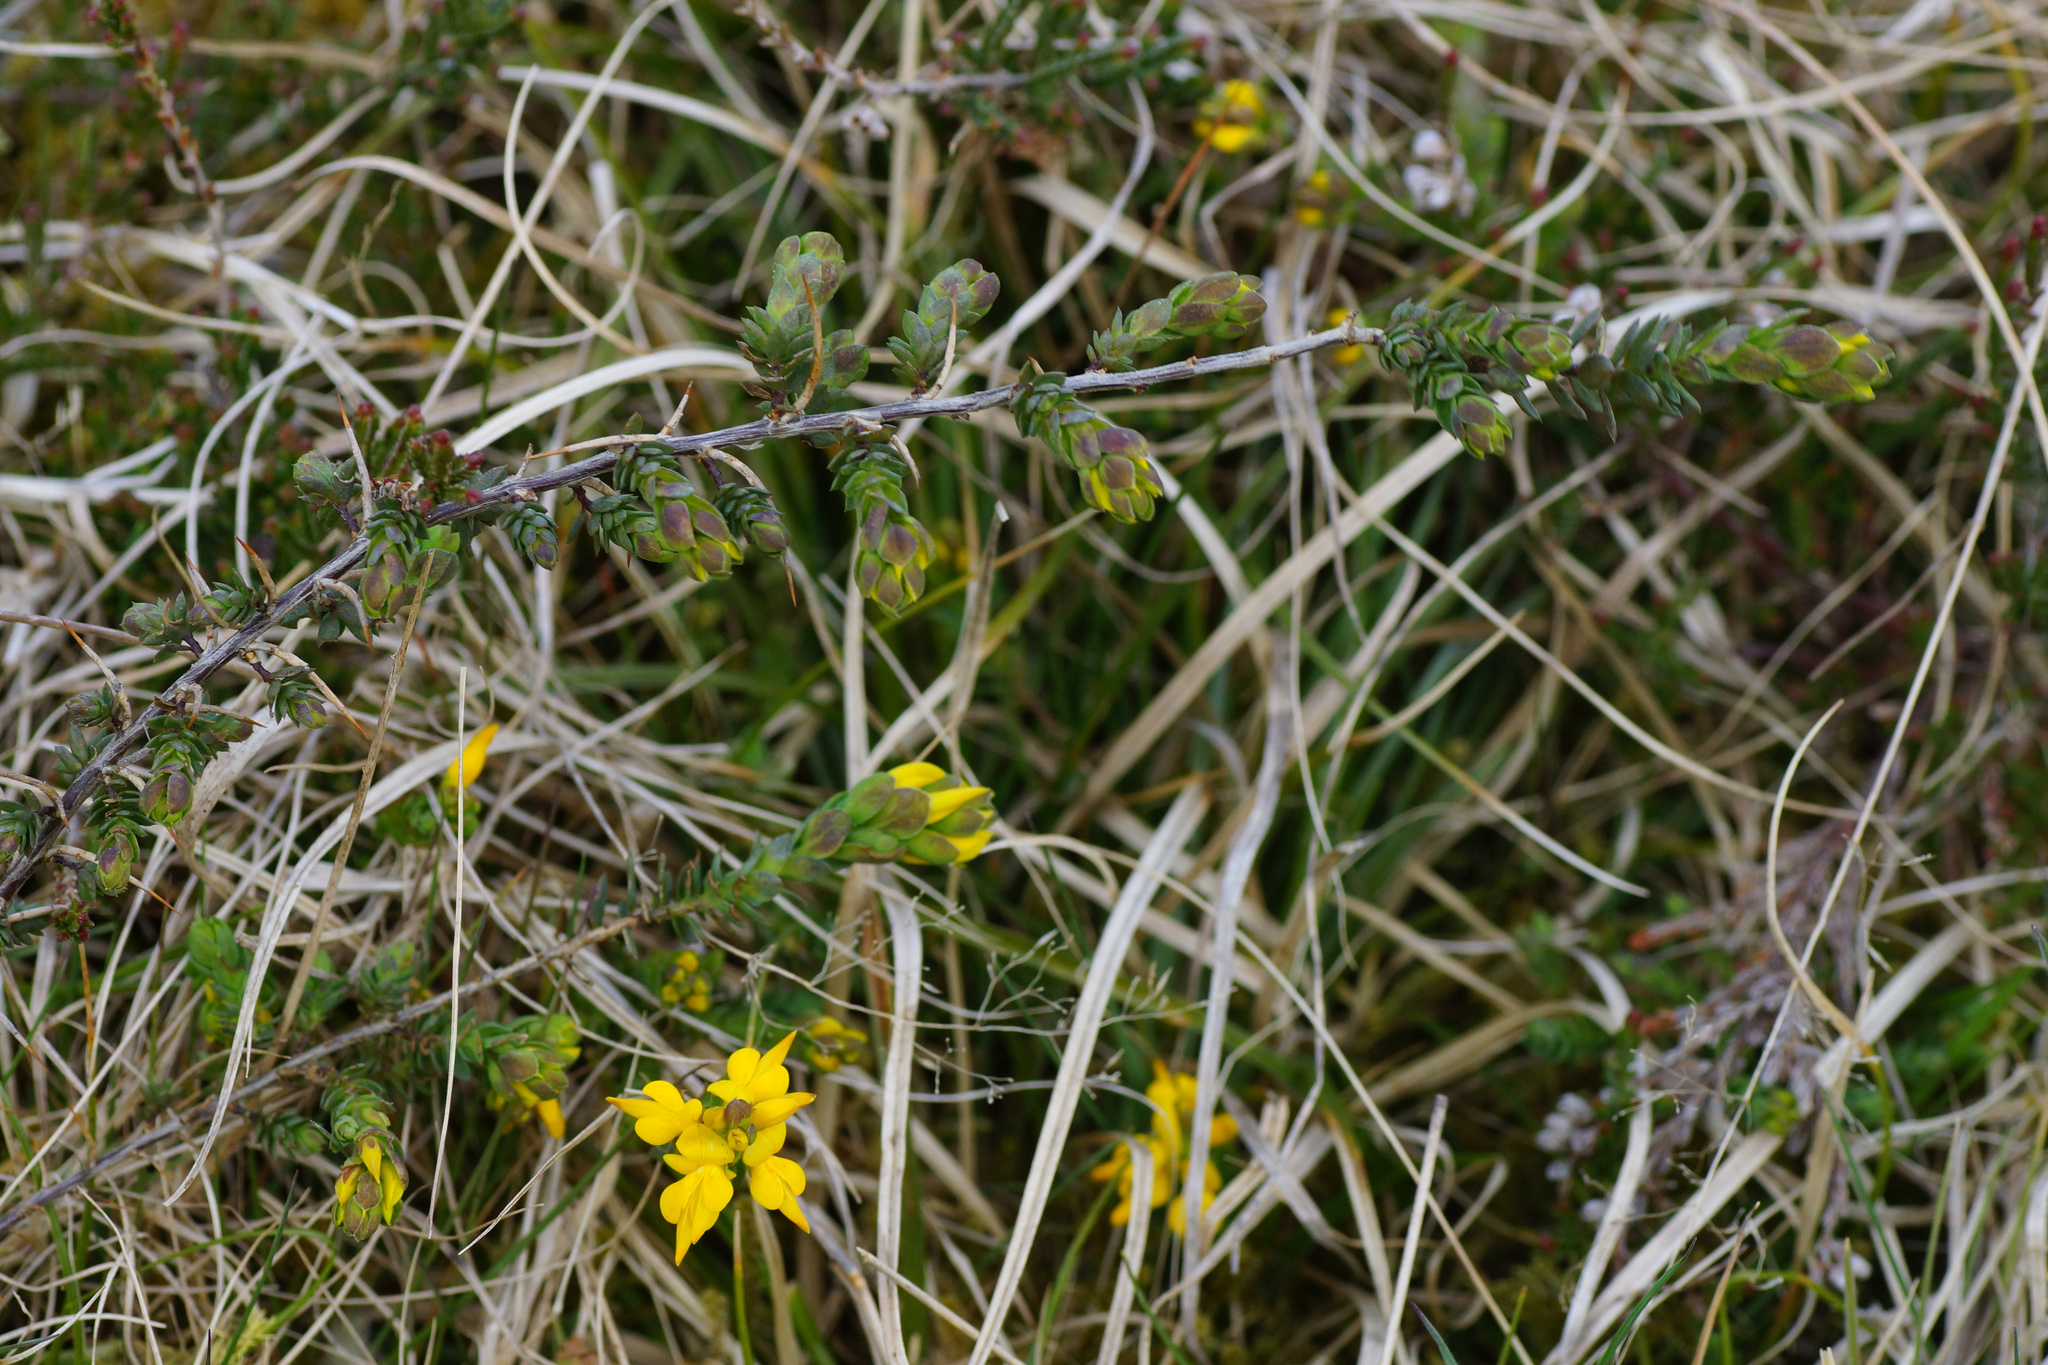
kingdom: Plantae
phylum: Tracheophyta
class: Magnoliopsida
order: Fabales
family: Fabaceae
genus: Genista
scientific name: Genista anglica
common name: Petty whin
